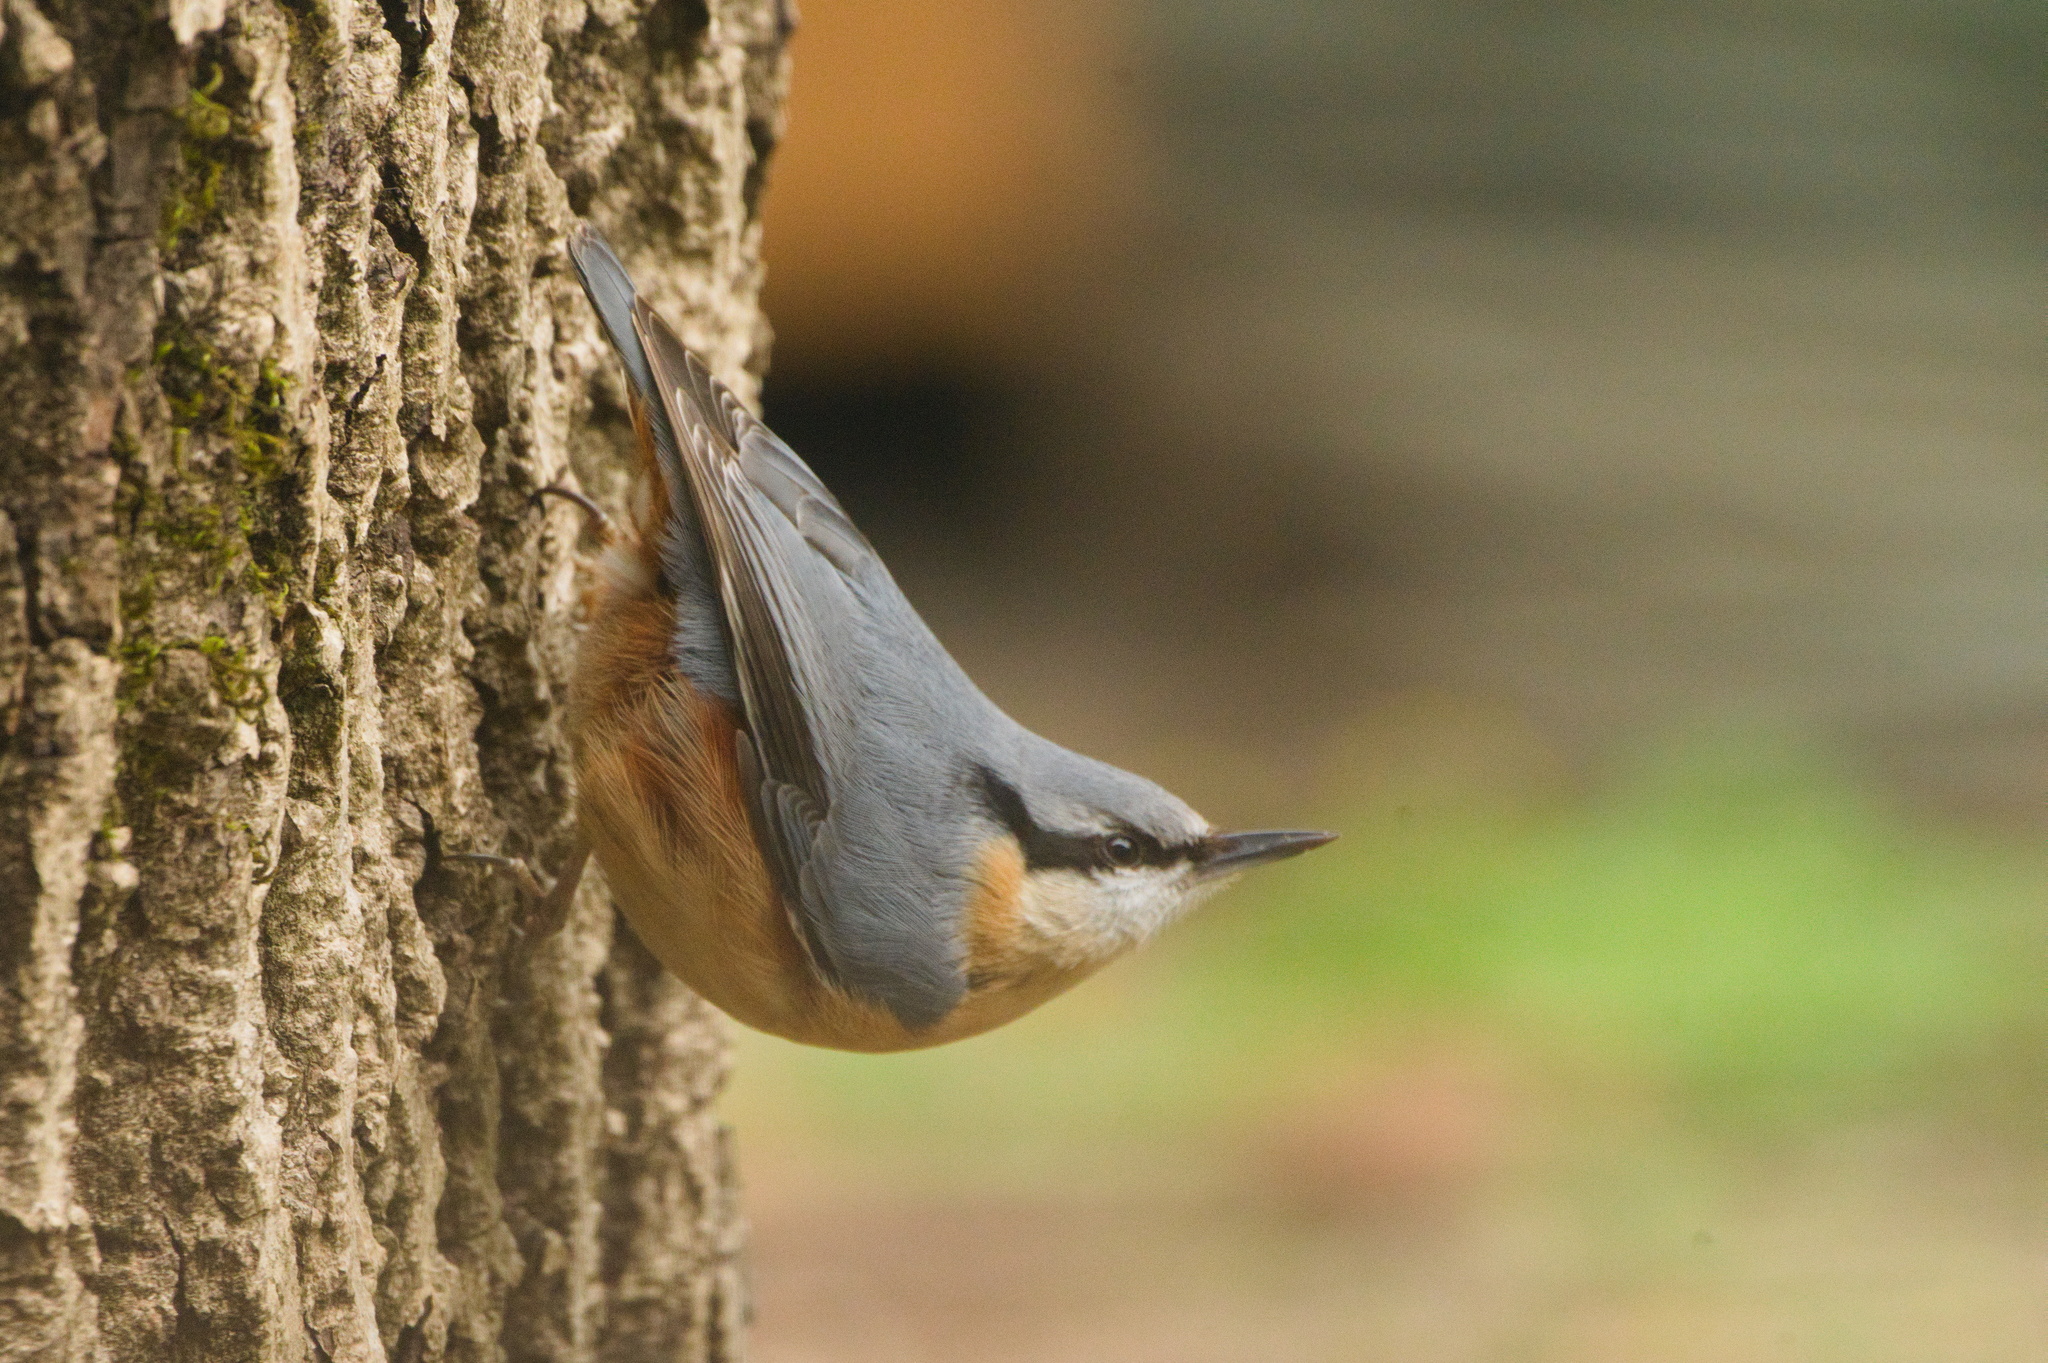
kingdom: Animalia
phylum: Chordata
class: Aves
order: Passeriformes
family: Sittidae
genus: Sitta
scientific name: Sitta europaea
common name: Eurasian nuthatch
